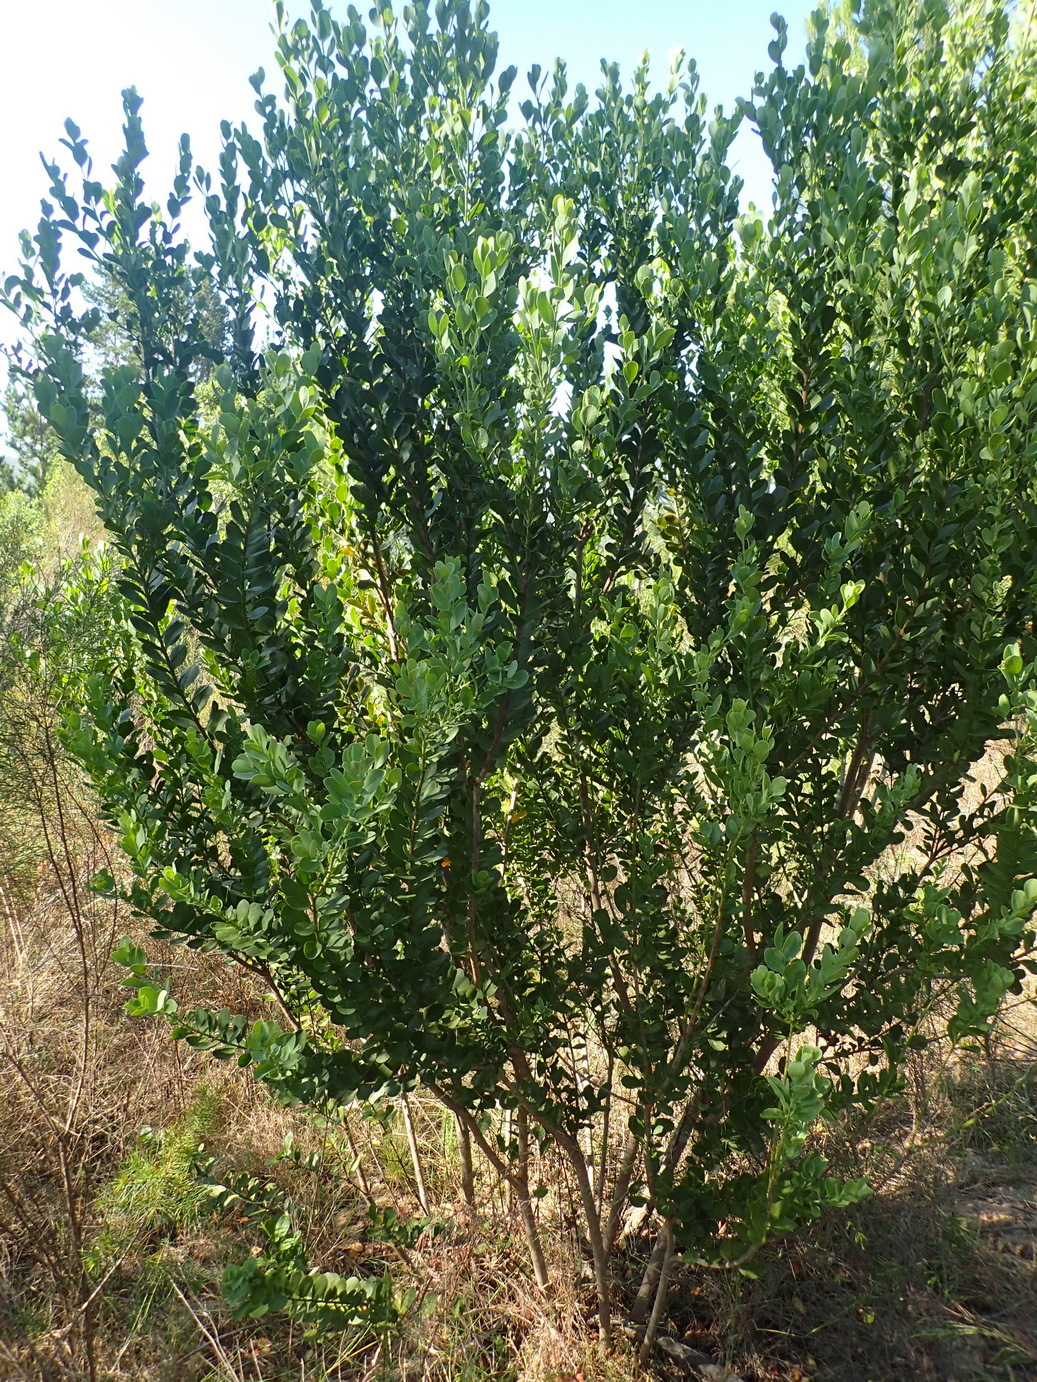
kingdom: Plantae
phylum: Tracheophyta
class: Magnoliopsida
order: Santalales
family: Santalaceae
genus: Osyris
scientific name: Osyris compressa
